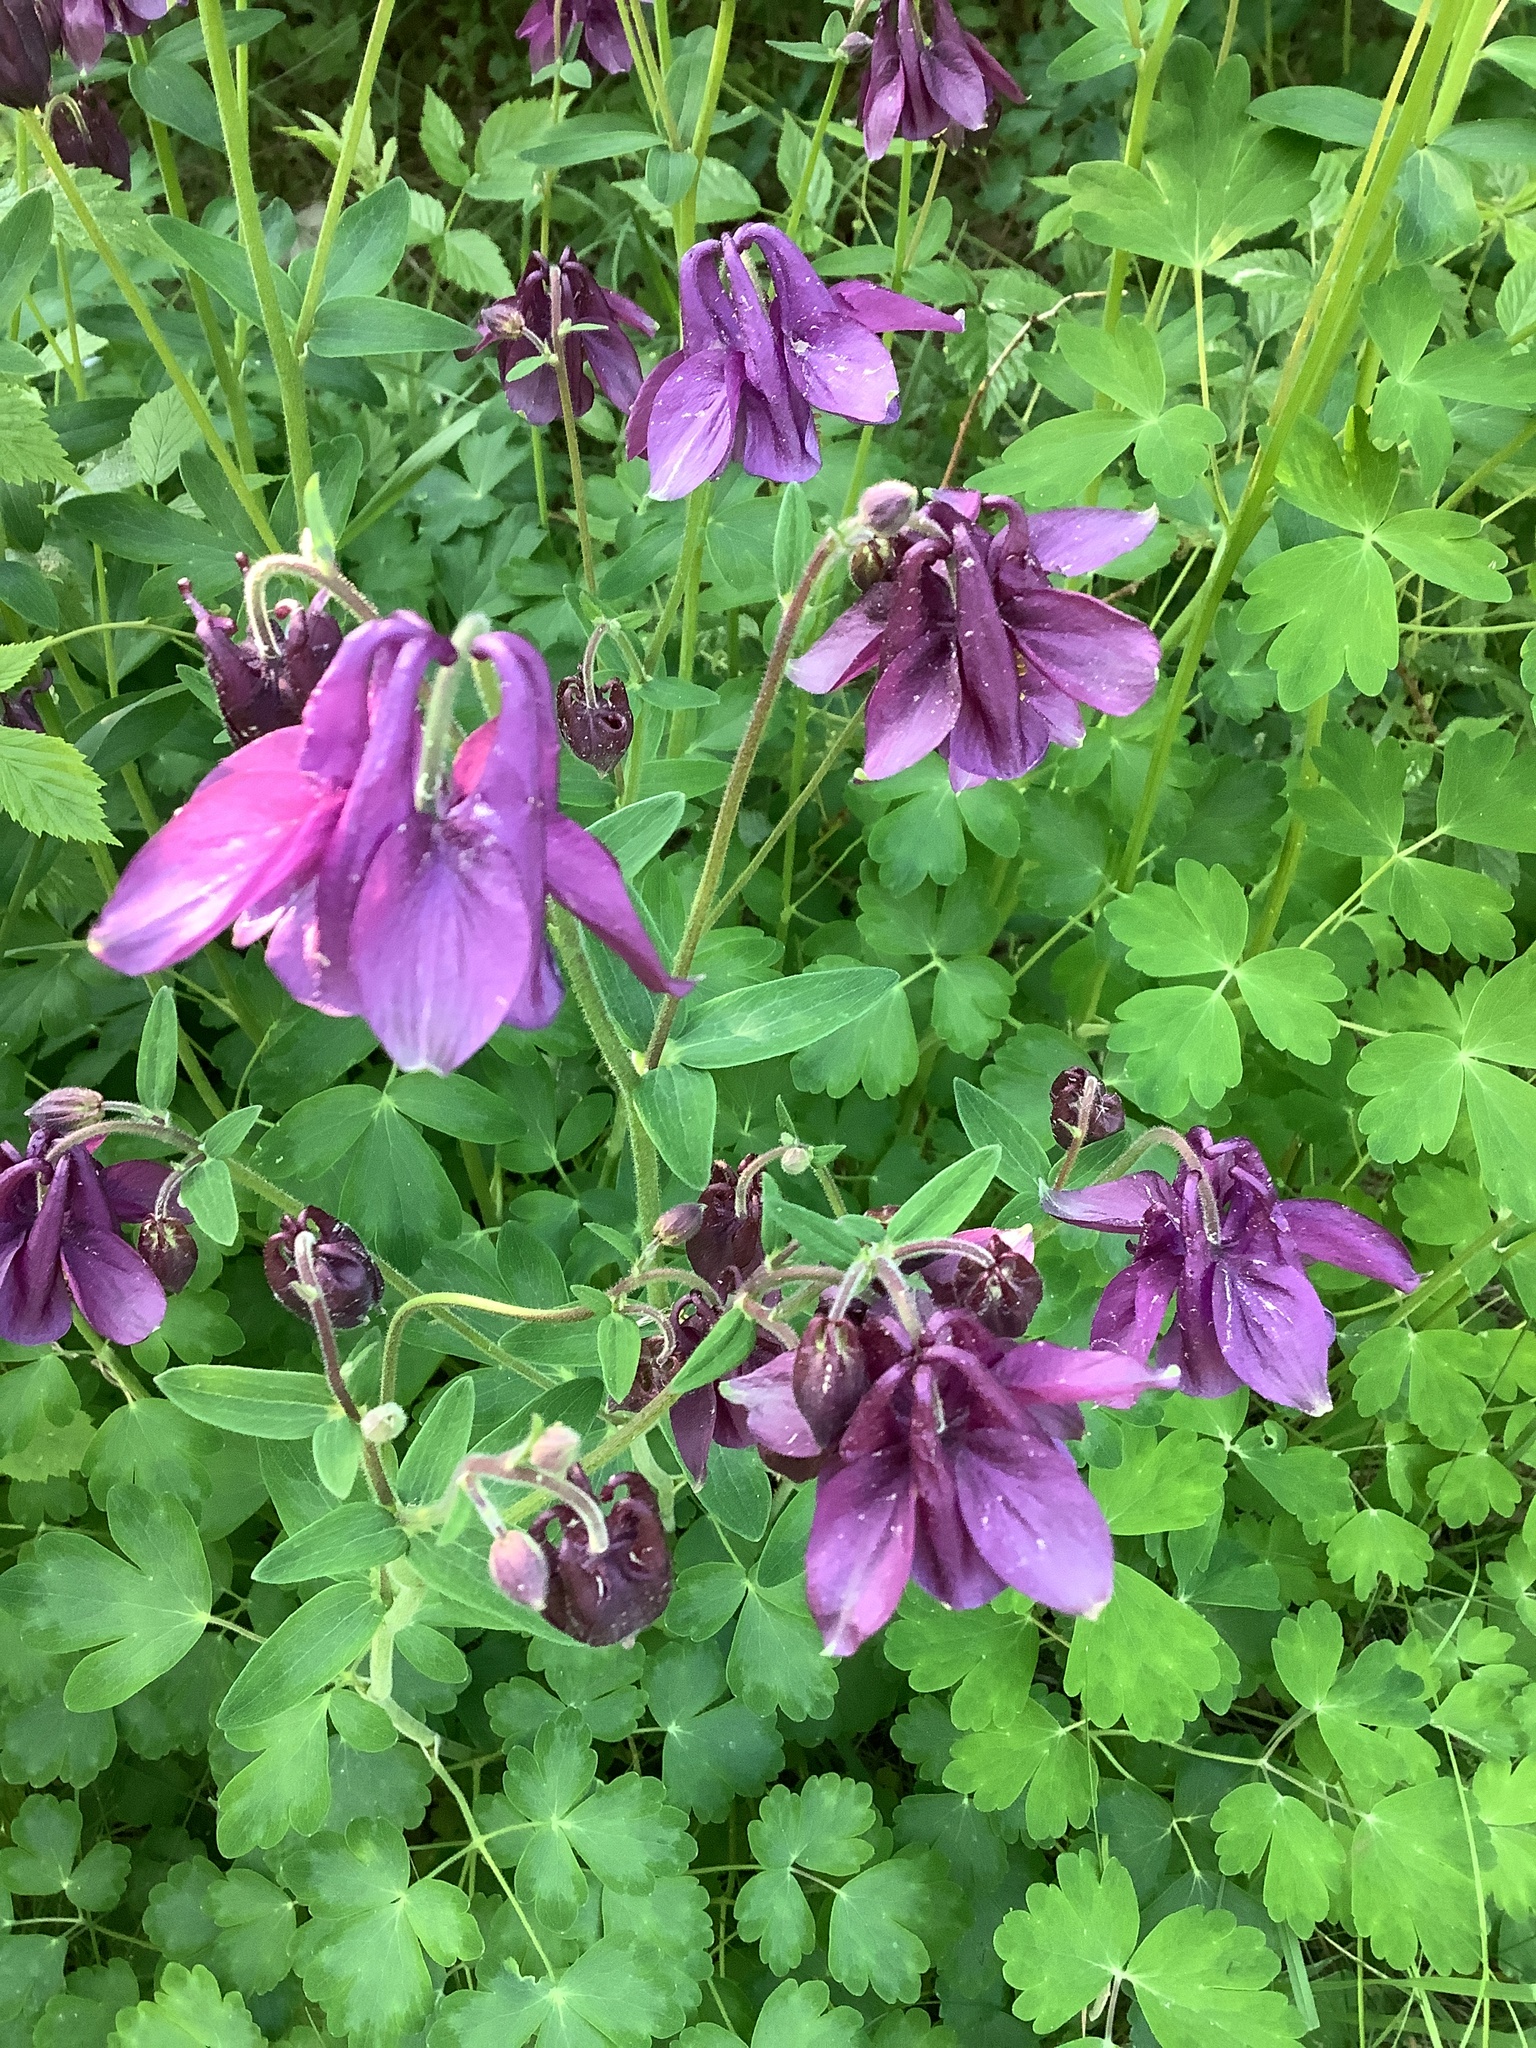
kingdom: Plantae
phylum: Tracheophyta
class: Magnoliopsida
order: Ranunculales
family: Ranunculaceae
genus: Aquilegia
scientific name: Aquilegia vulgaris
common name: Columbine
